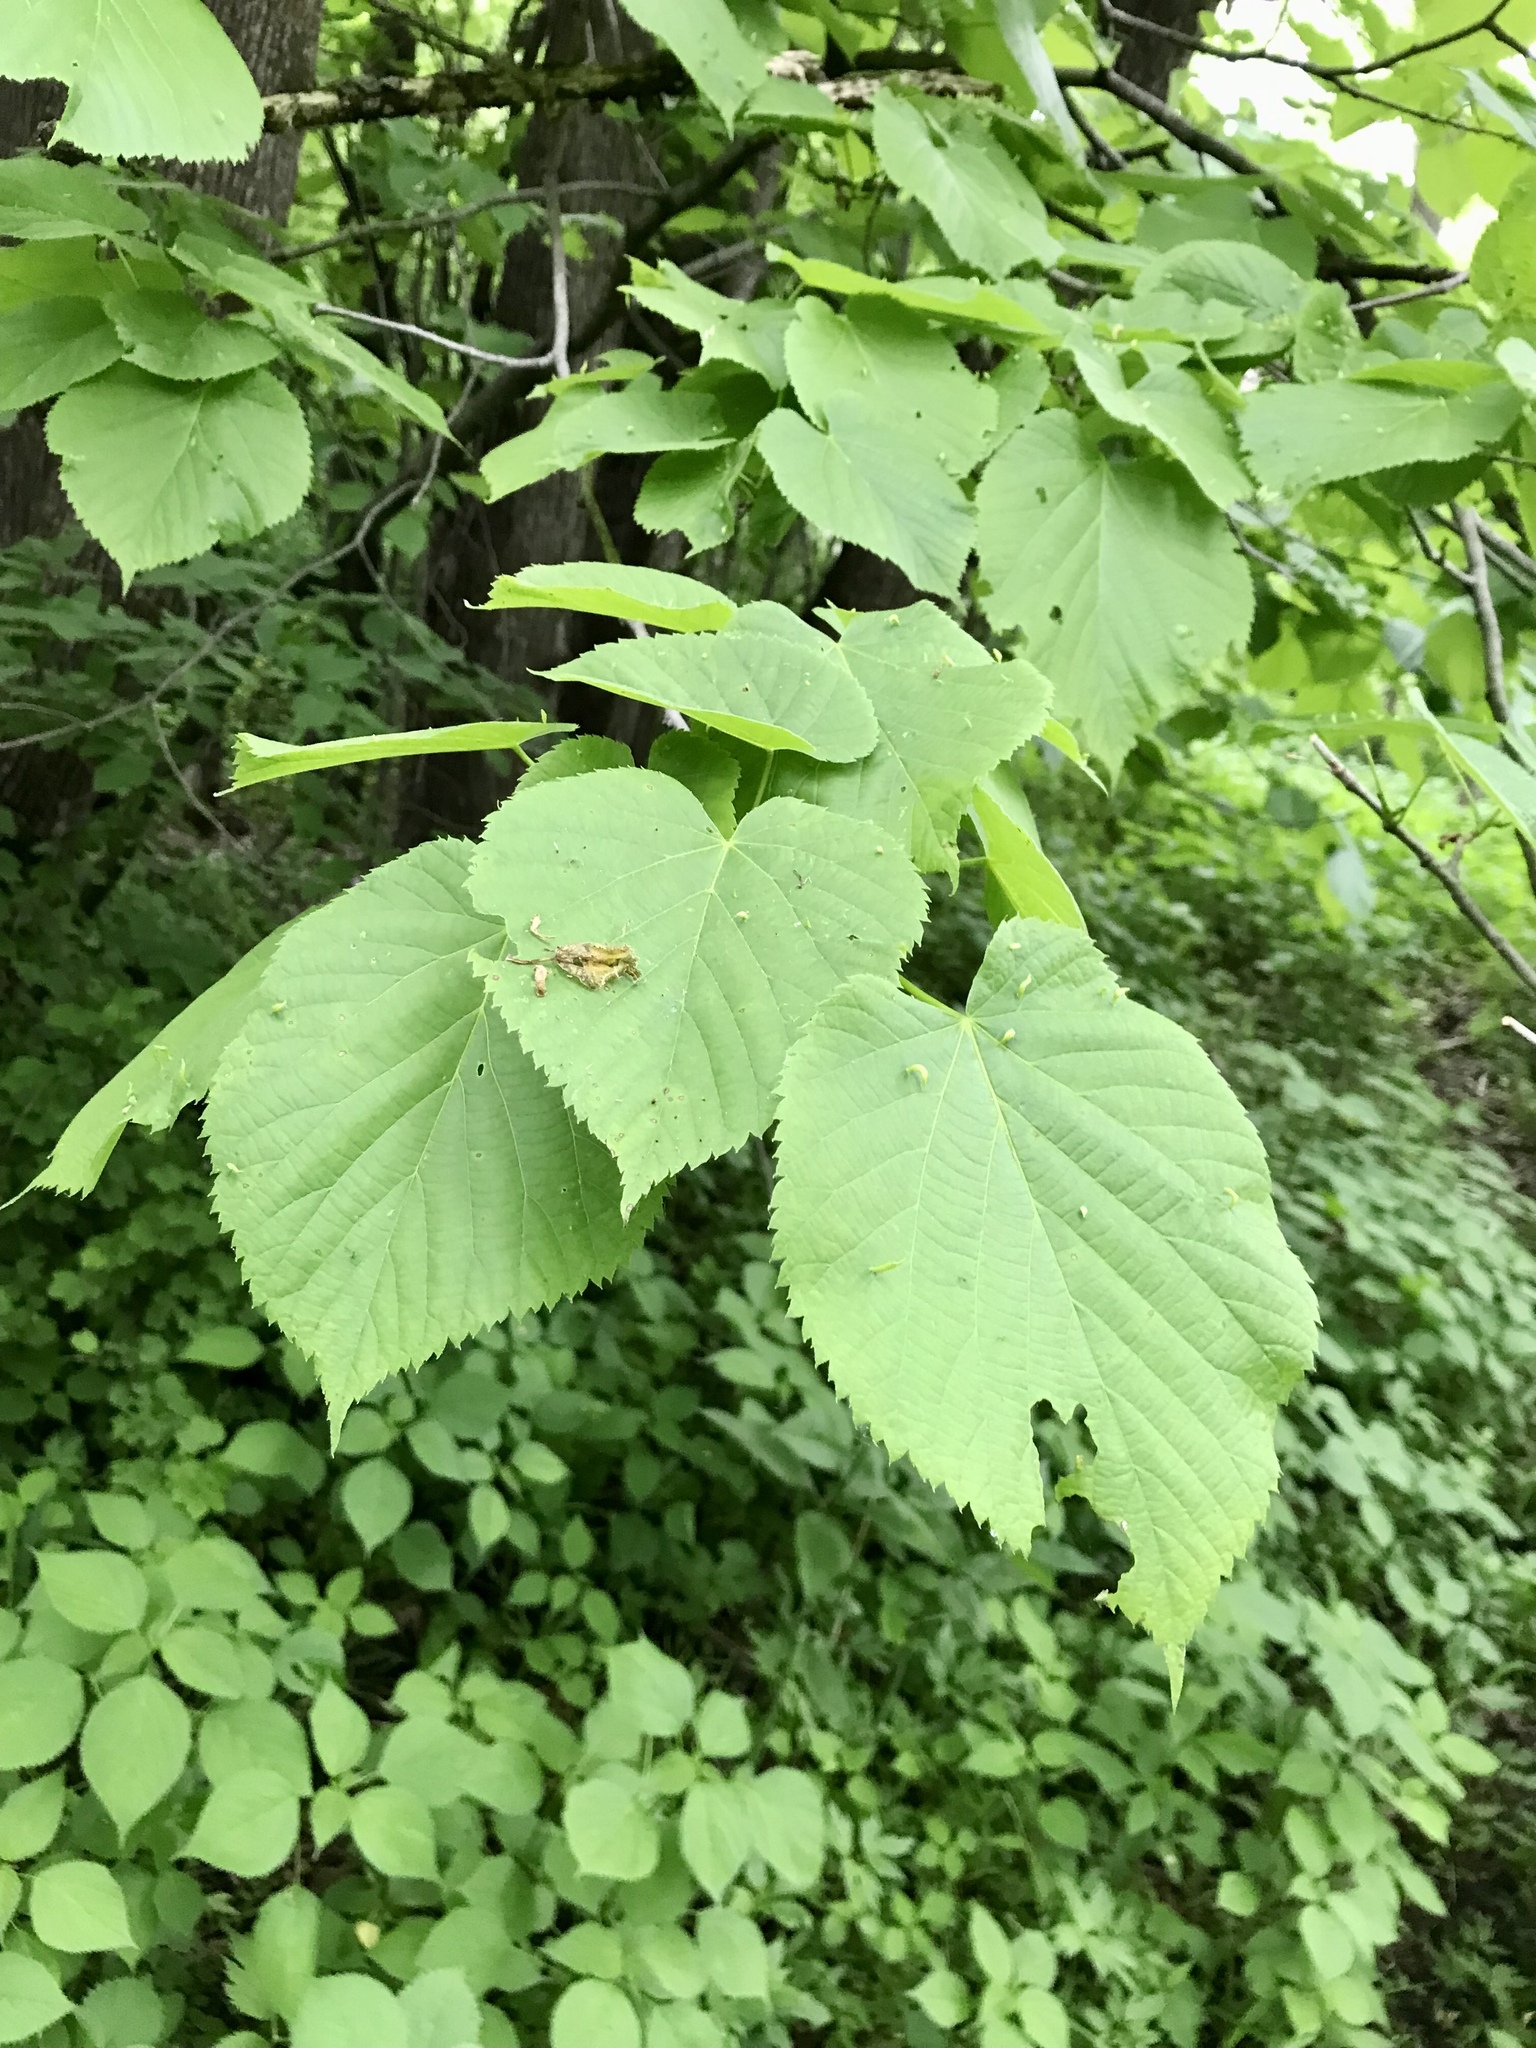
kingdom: Plantae
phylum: Tracheophyta
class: Magnoliopsida
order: Malvales
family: Malvaceae
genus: Tilia
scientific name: Tilia americana
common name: Basswood
